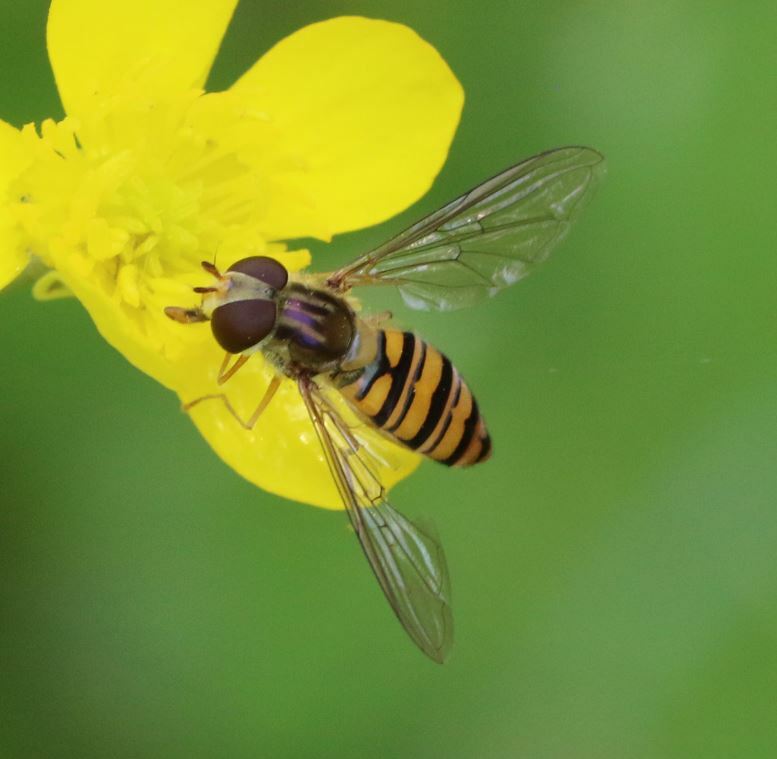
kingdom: Animalia
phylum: Arthropoda
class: Insecta
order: Diptera
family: Syrphidae
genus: Episyrphus
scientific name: Episyrphus balteatus
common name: Marmalade hoverfly
